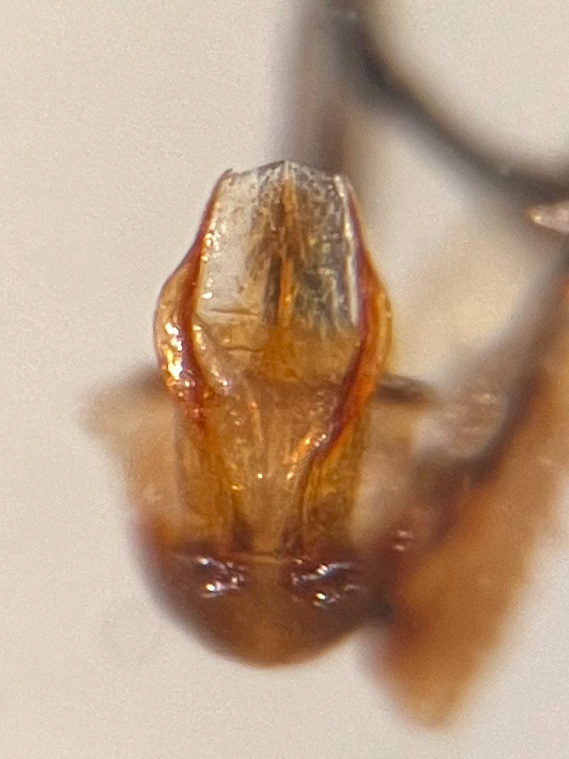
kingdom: Animalia
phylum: Arthropoda
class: Insecta
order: Hemiptera
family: Cicadellidae
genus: Psammotettix
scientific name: Psammotettix confinis
